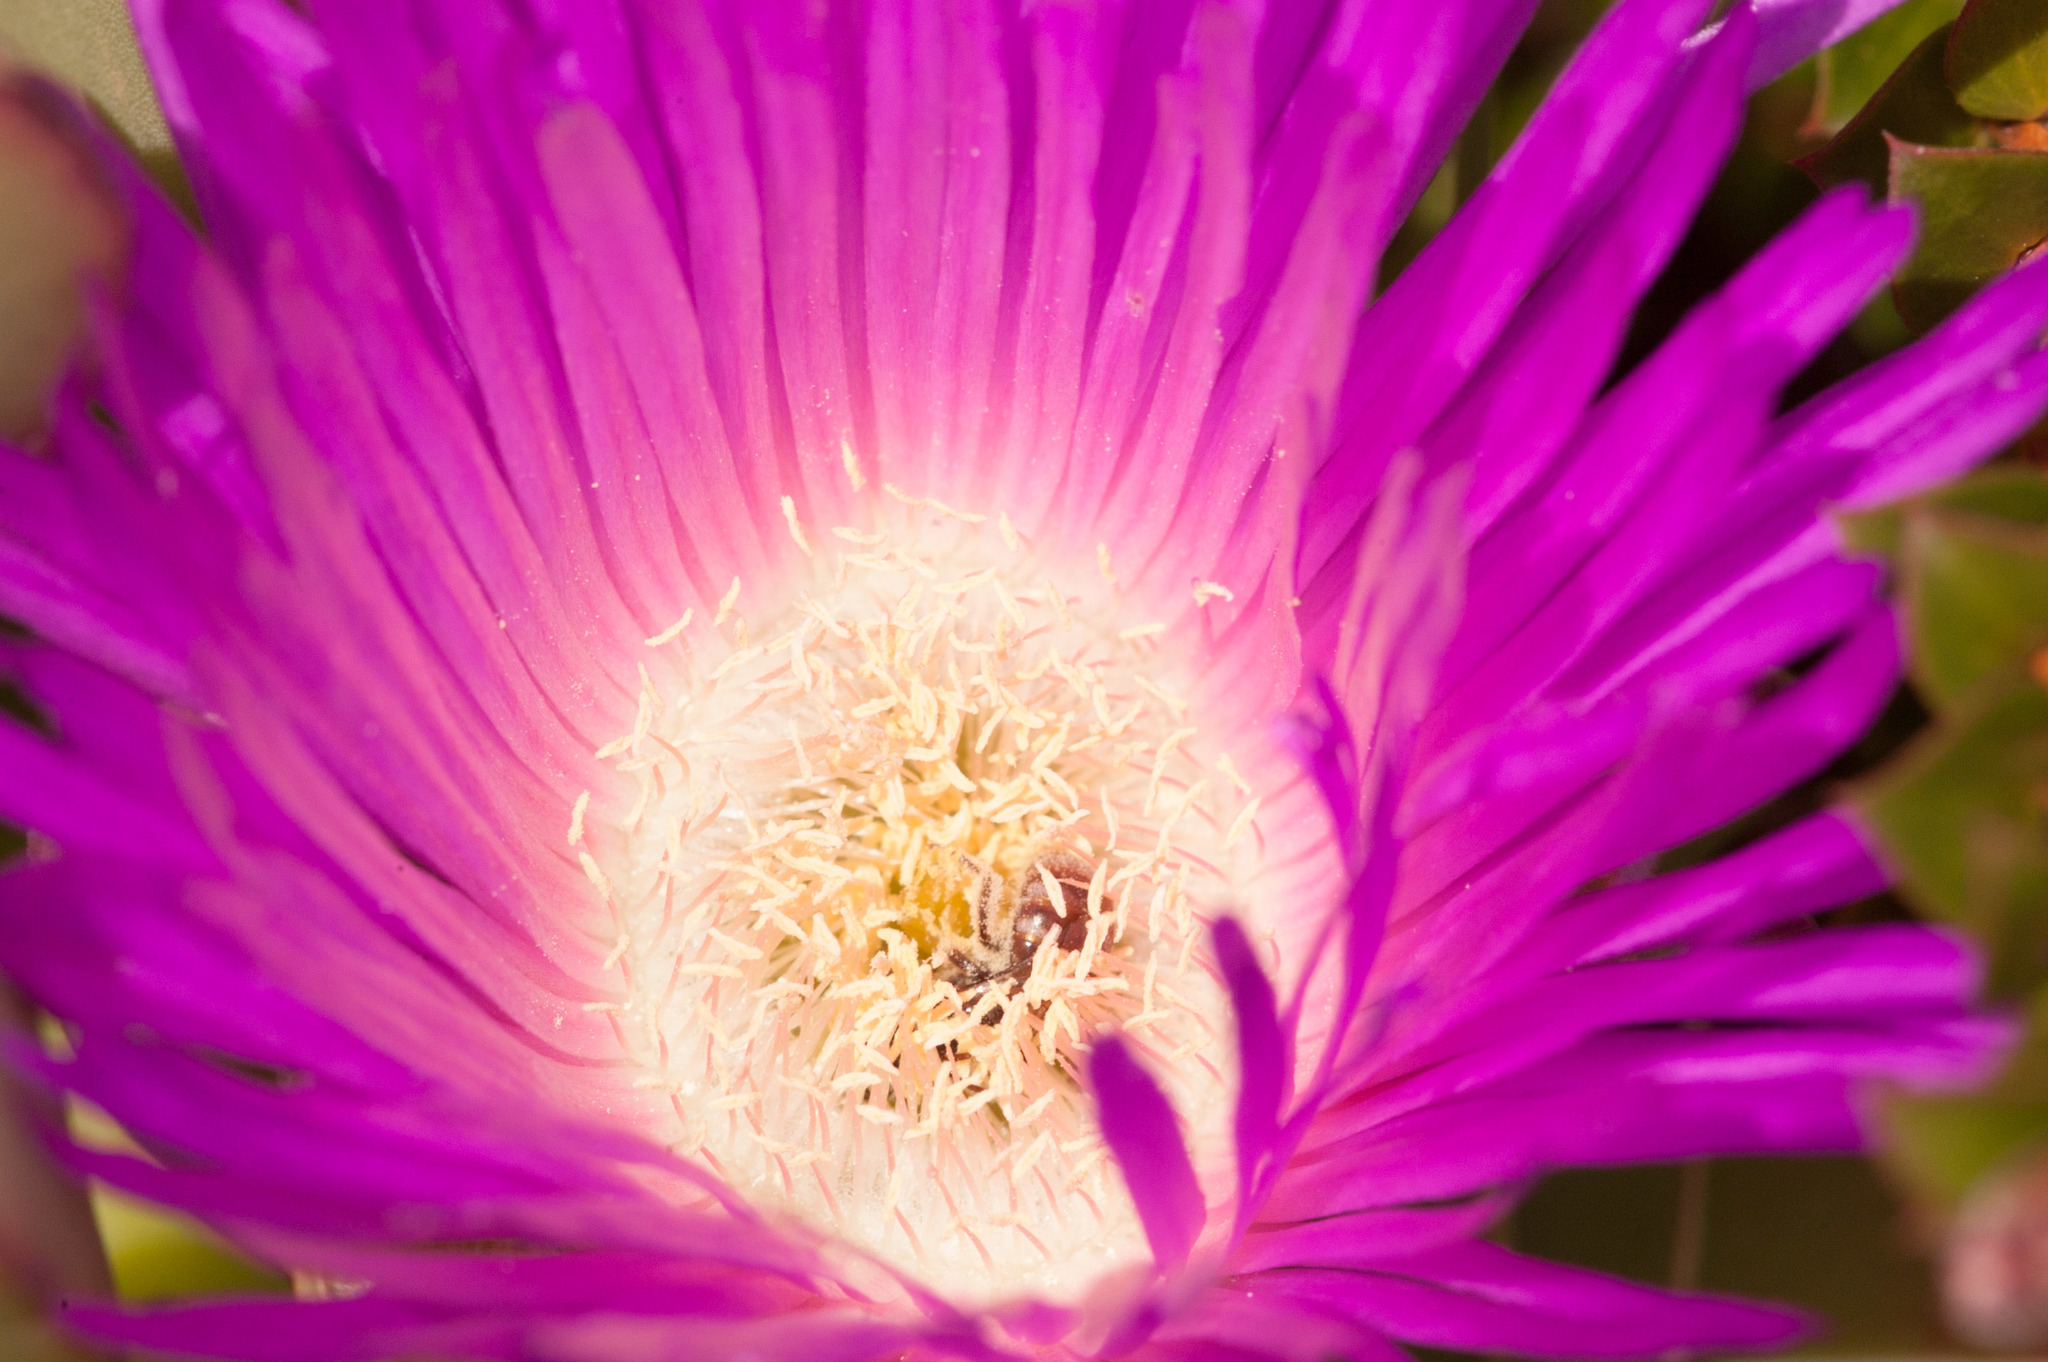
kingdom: Plantae
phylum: Tracheophyta
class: Magnoliopsida
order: Caryophyllales
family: Aizoaceae
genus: Carpobrotus
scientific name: Carpobrotus rossii
